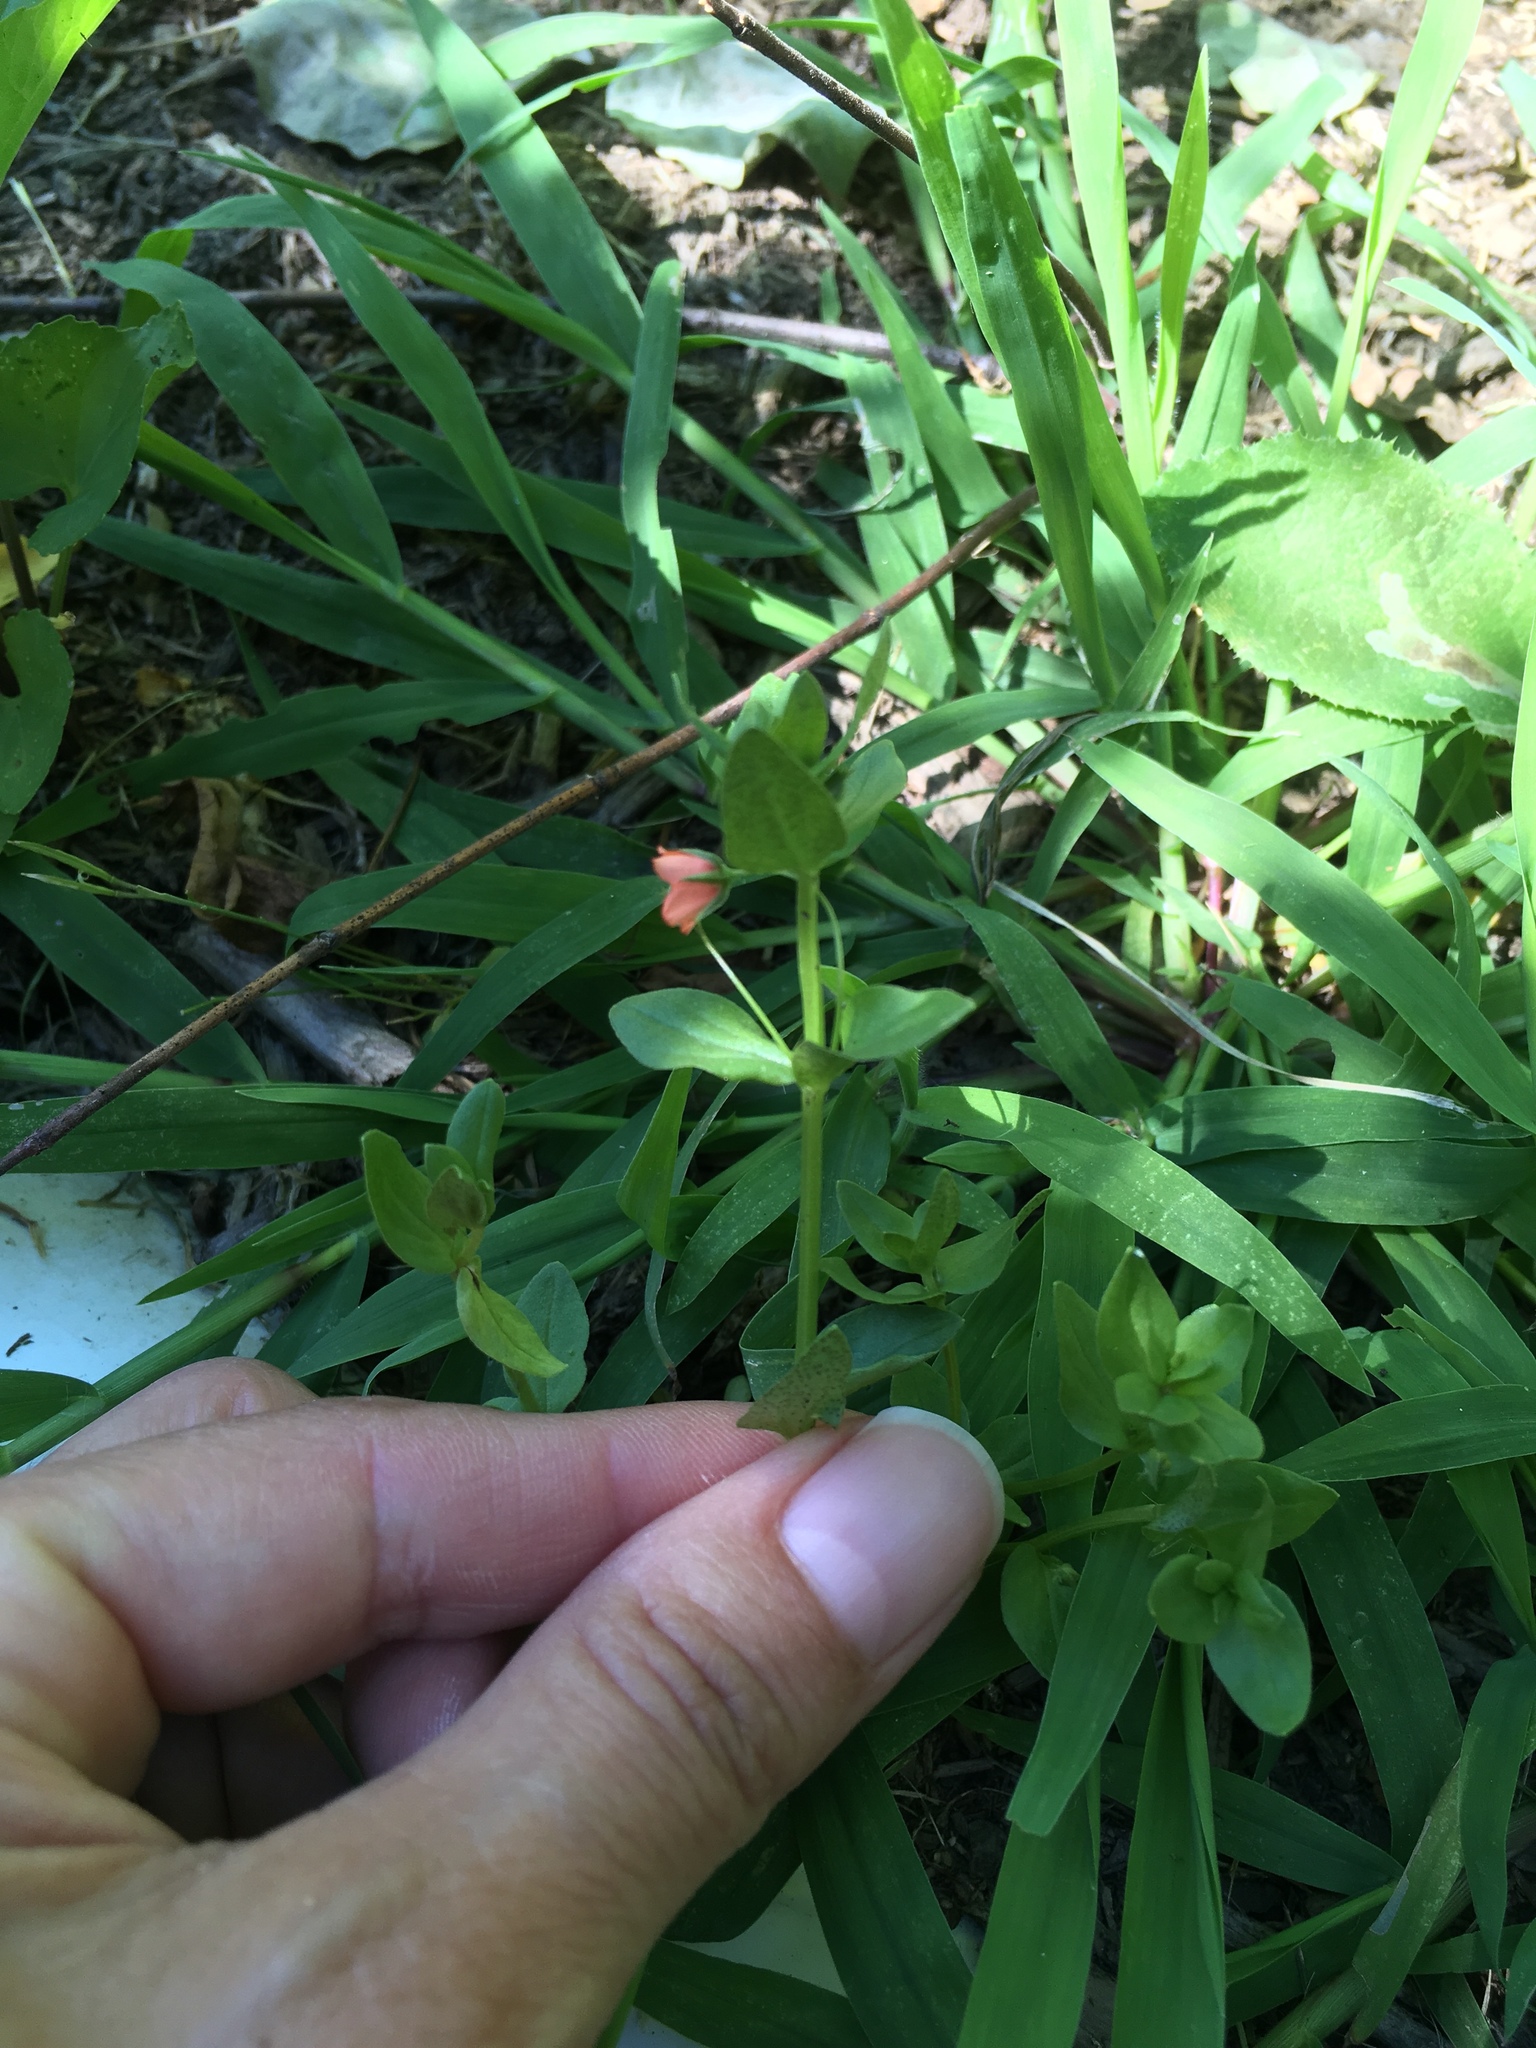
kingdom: Plantae
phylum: Tracheophyta
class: Magnoliopsida
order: Ericales
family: Primulaceae
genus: Lysimachia
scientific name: Lysimachia arvensis
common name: Scarlet pimpernel
